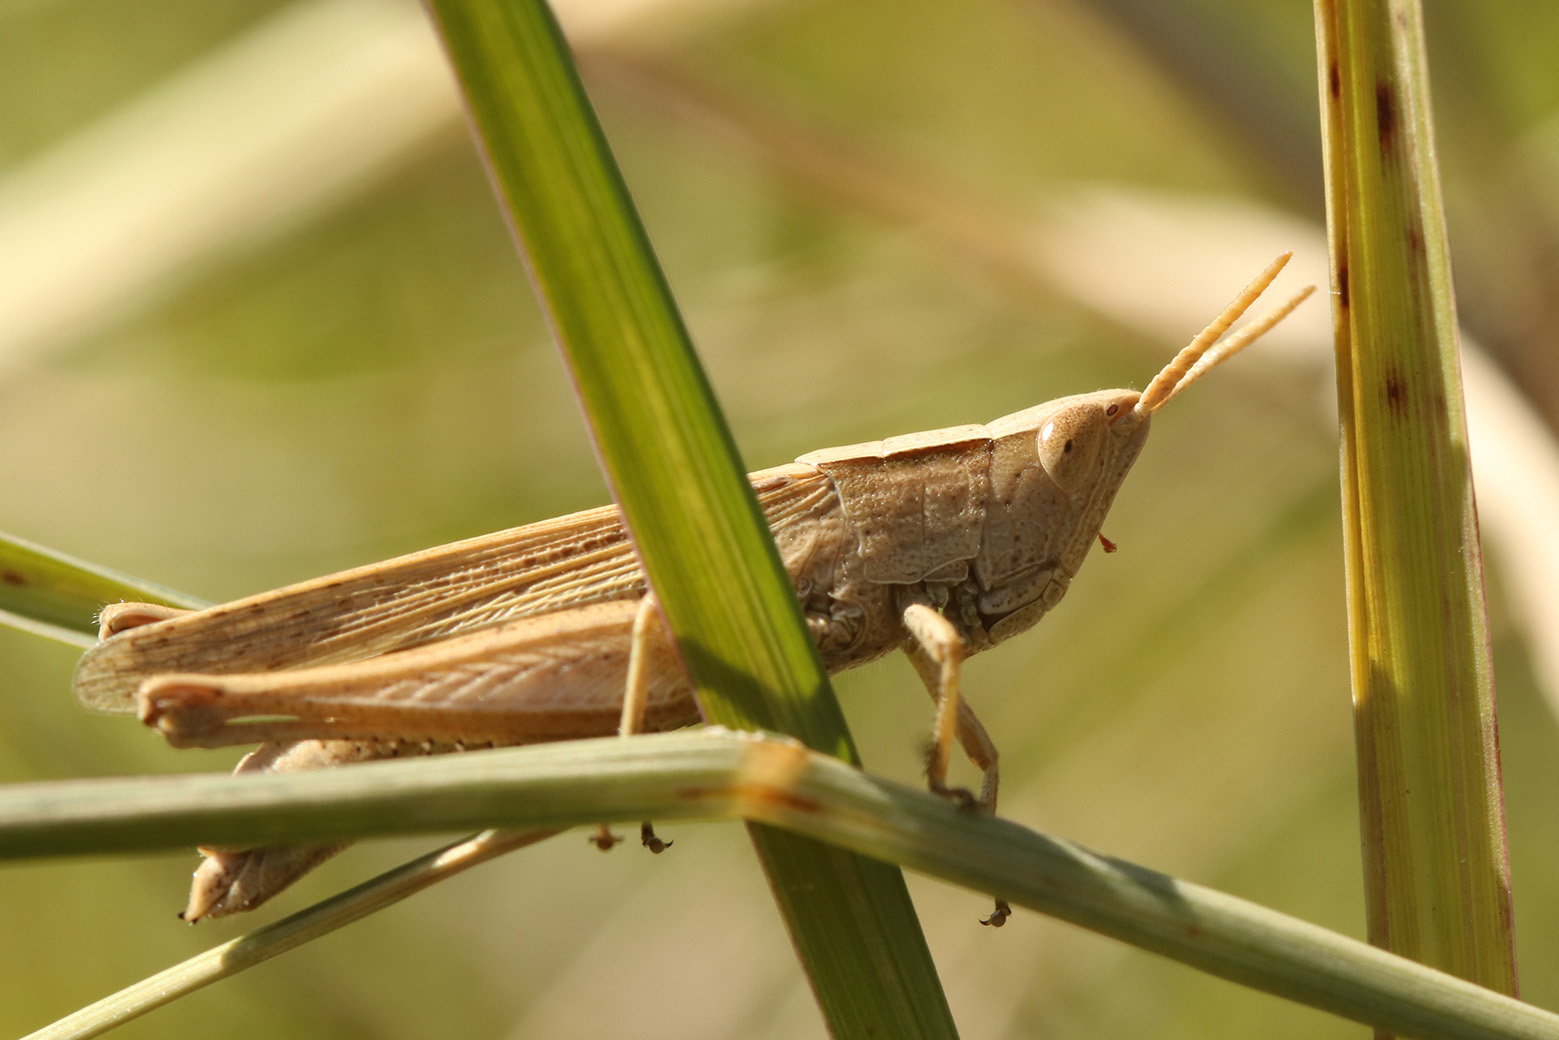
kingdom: Animalia
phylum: Arthropoda
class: Insecta
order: Orthoptera
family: Acrididae
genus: Laplatacris
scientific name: Laplatacris dispar
